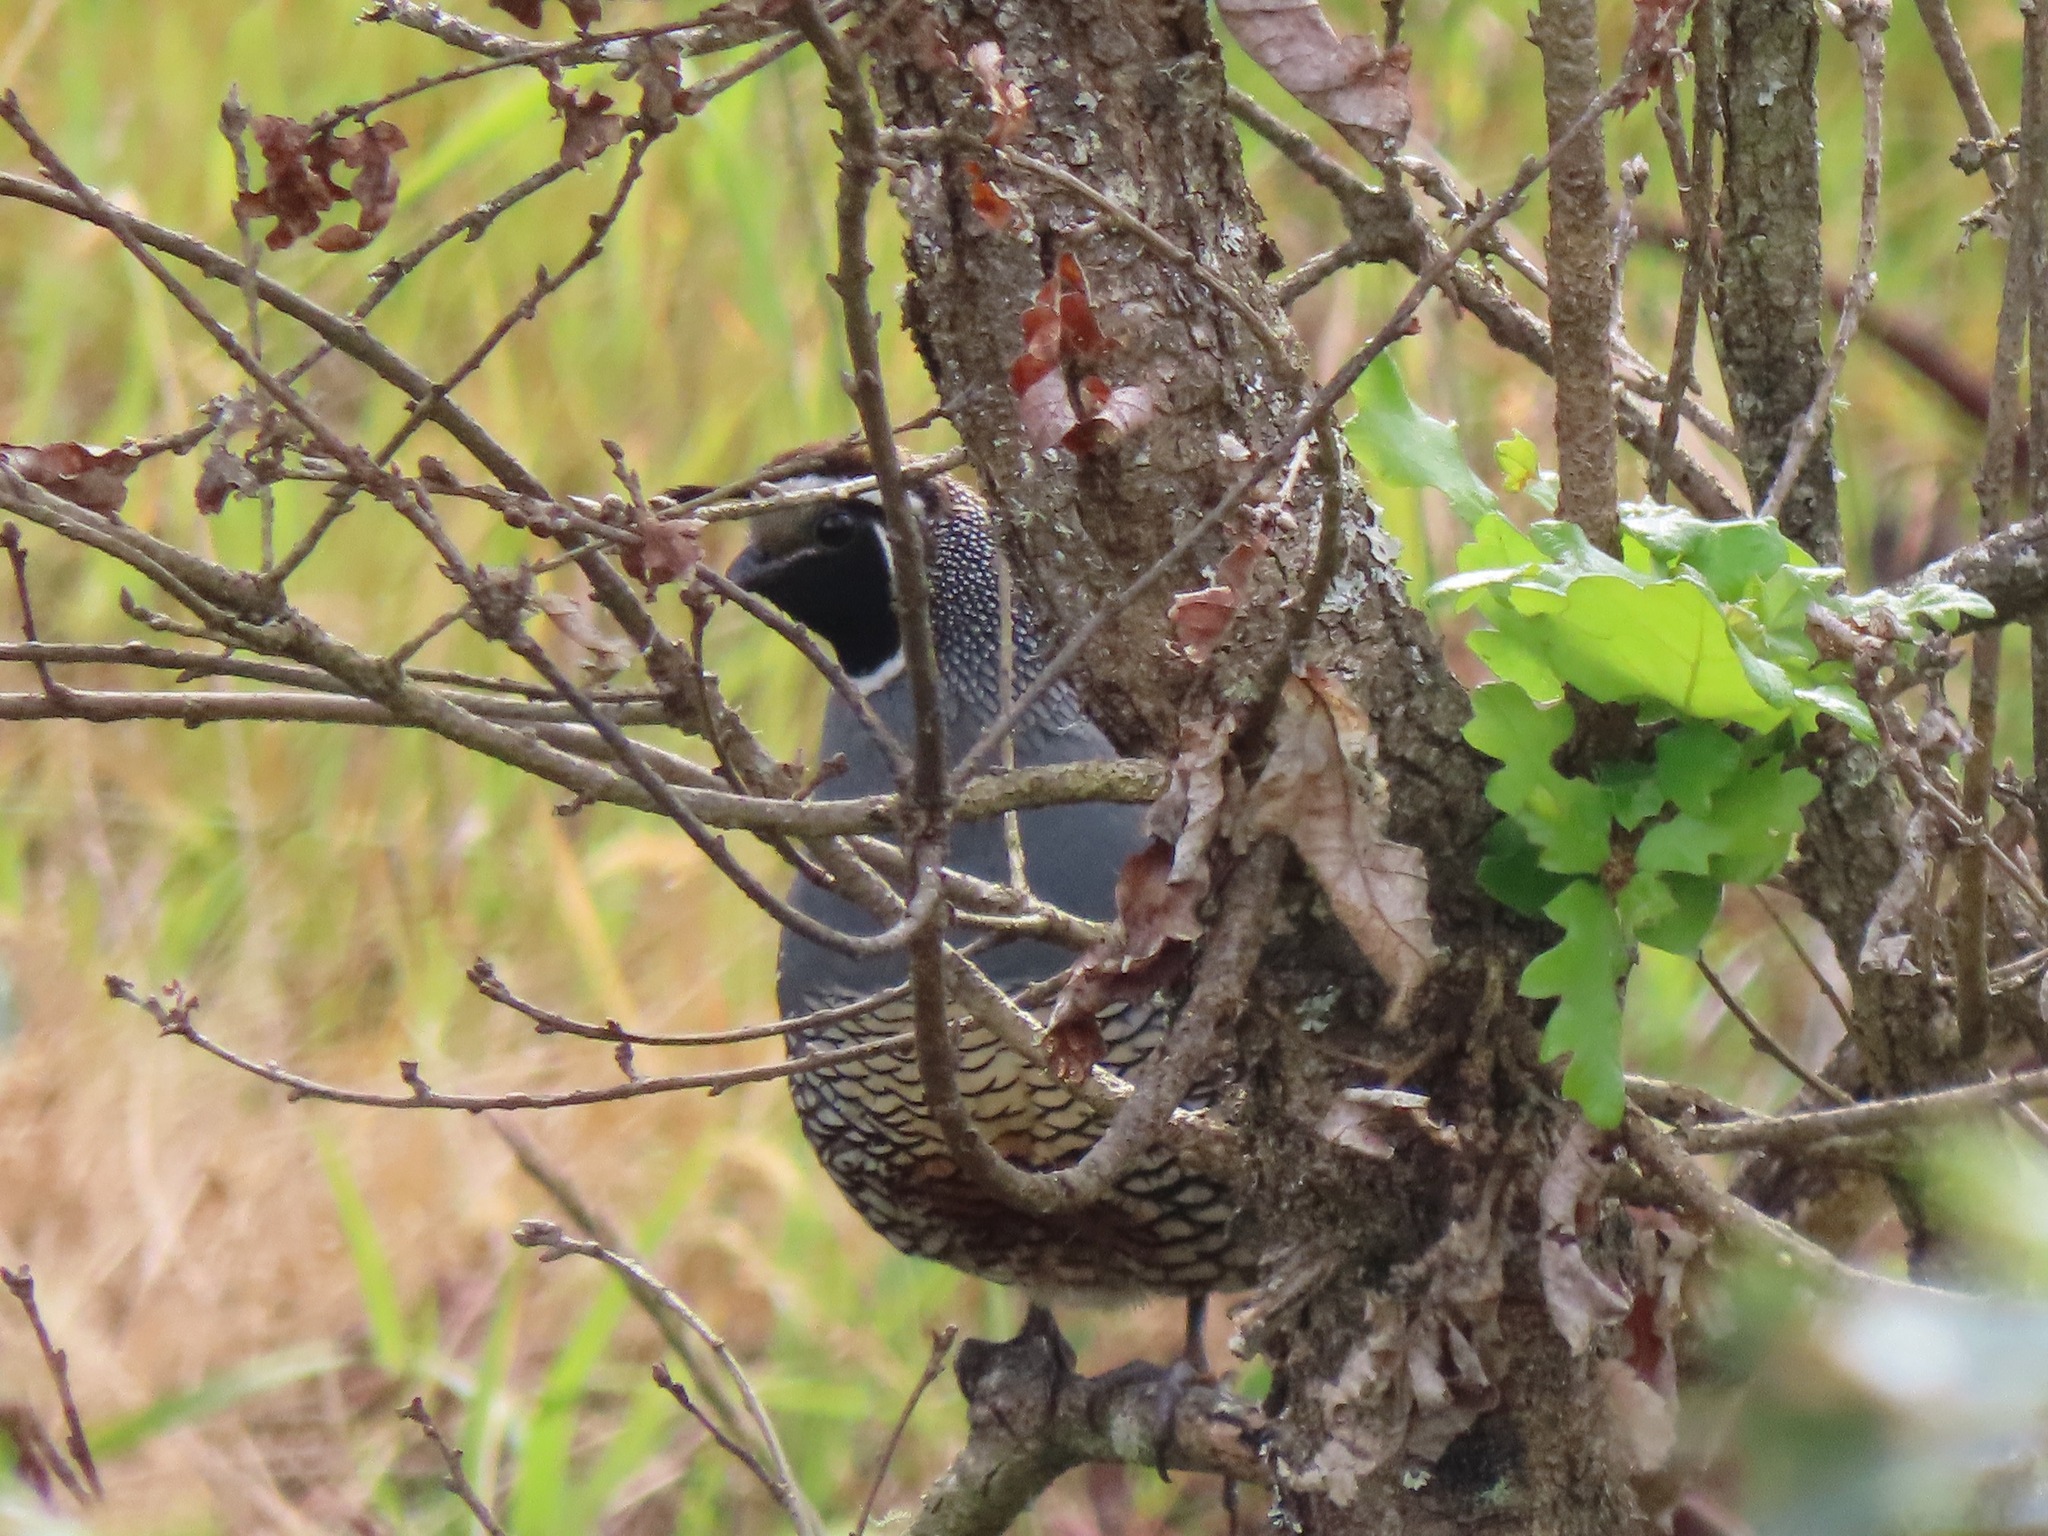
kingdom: Animalia
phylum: Chordata
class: Aves
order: Galliformes
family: Odontophoridae
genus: Callipepla
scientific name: Callipepla californica
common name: California quail
